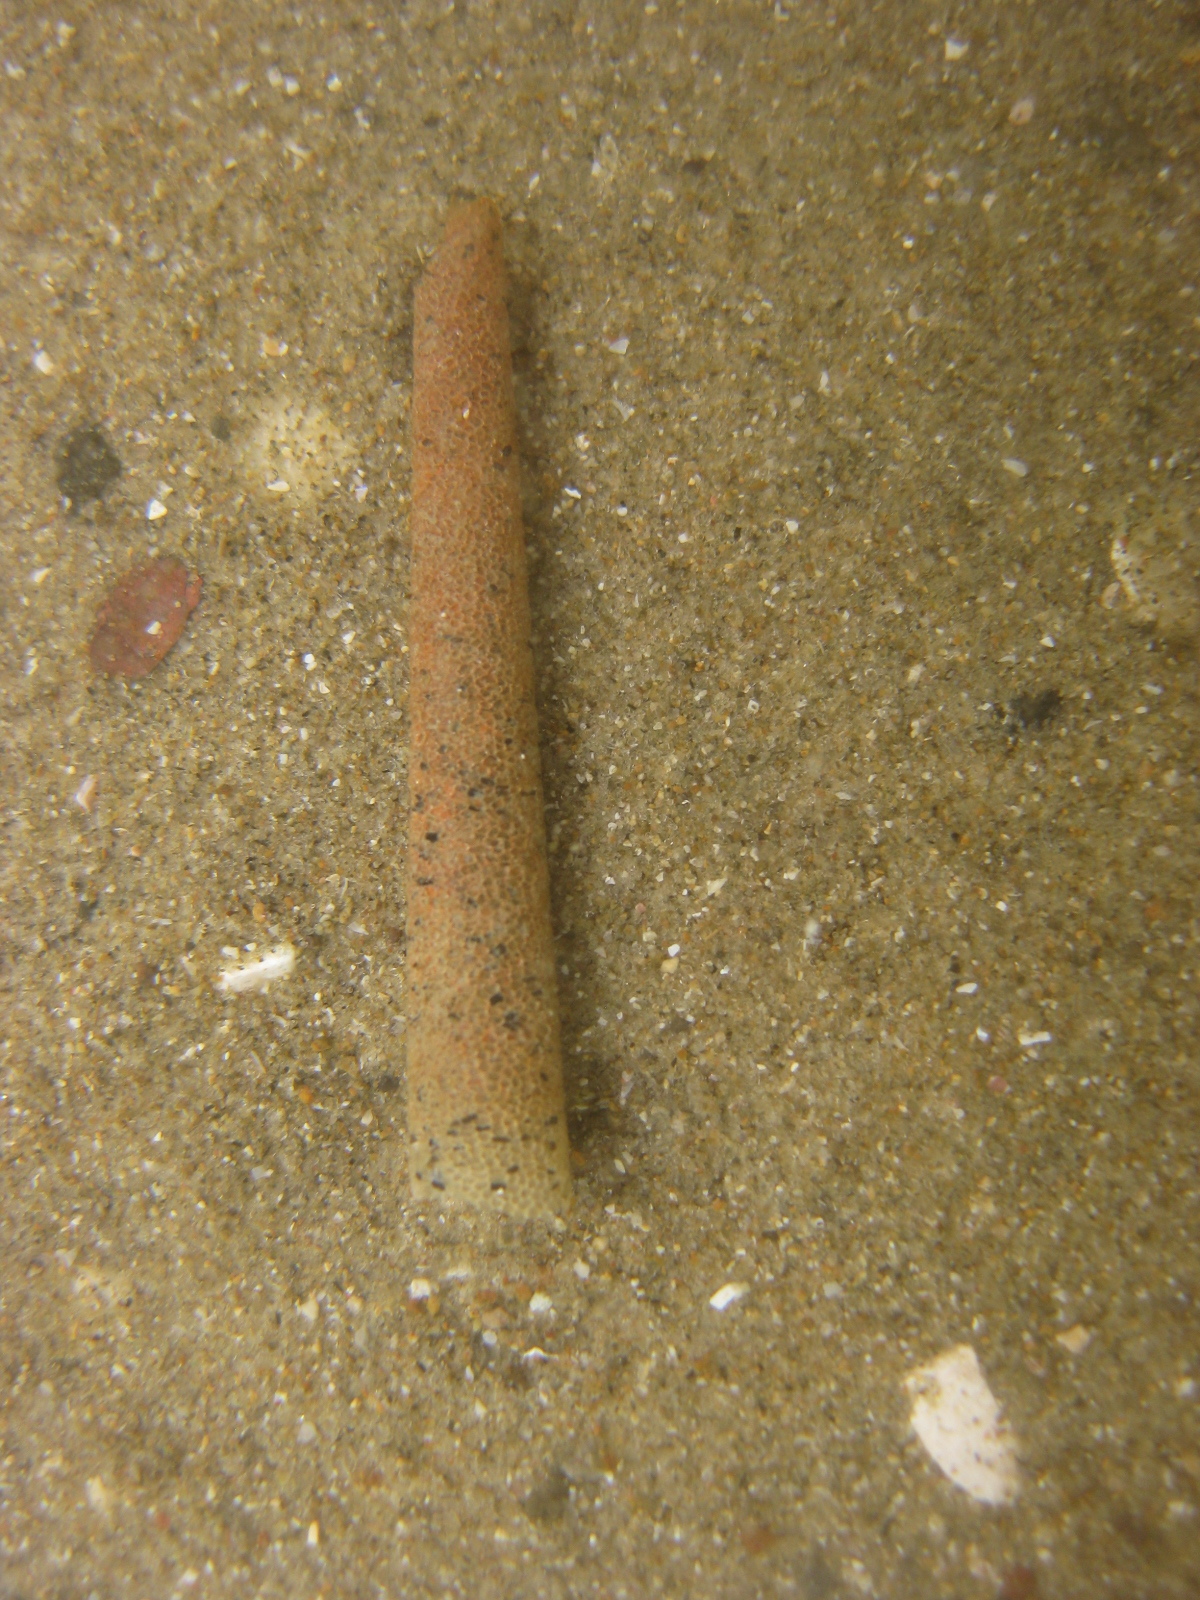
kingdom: Animalia
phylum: Annelida
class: Polychaeta
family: Pectinariidae
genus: Lagis
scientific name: Lagis australis
